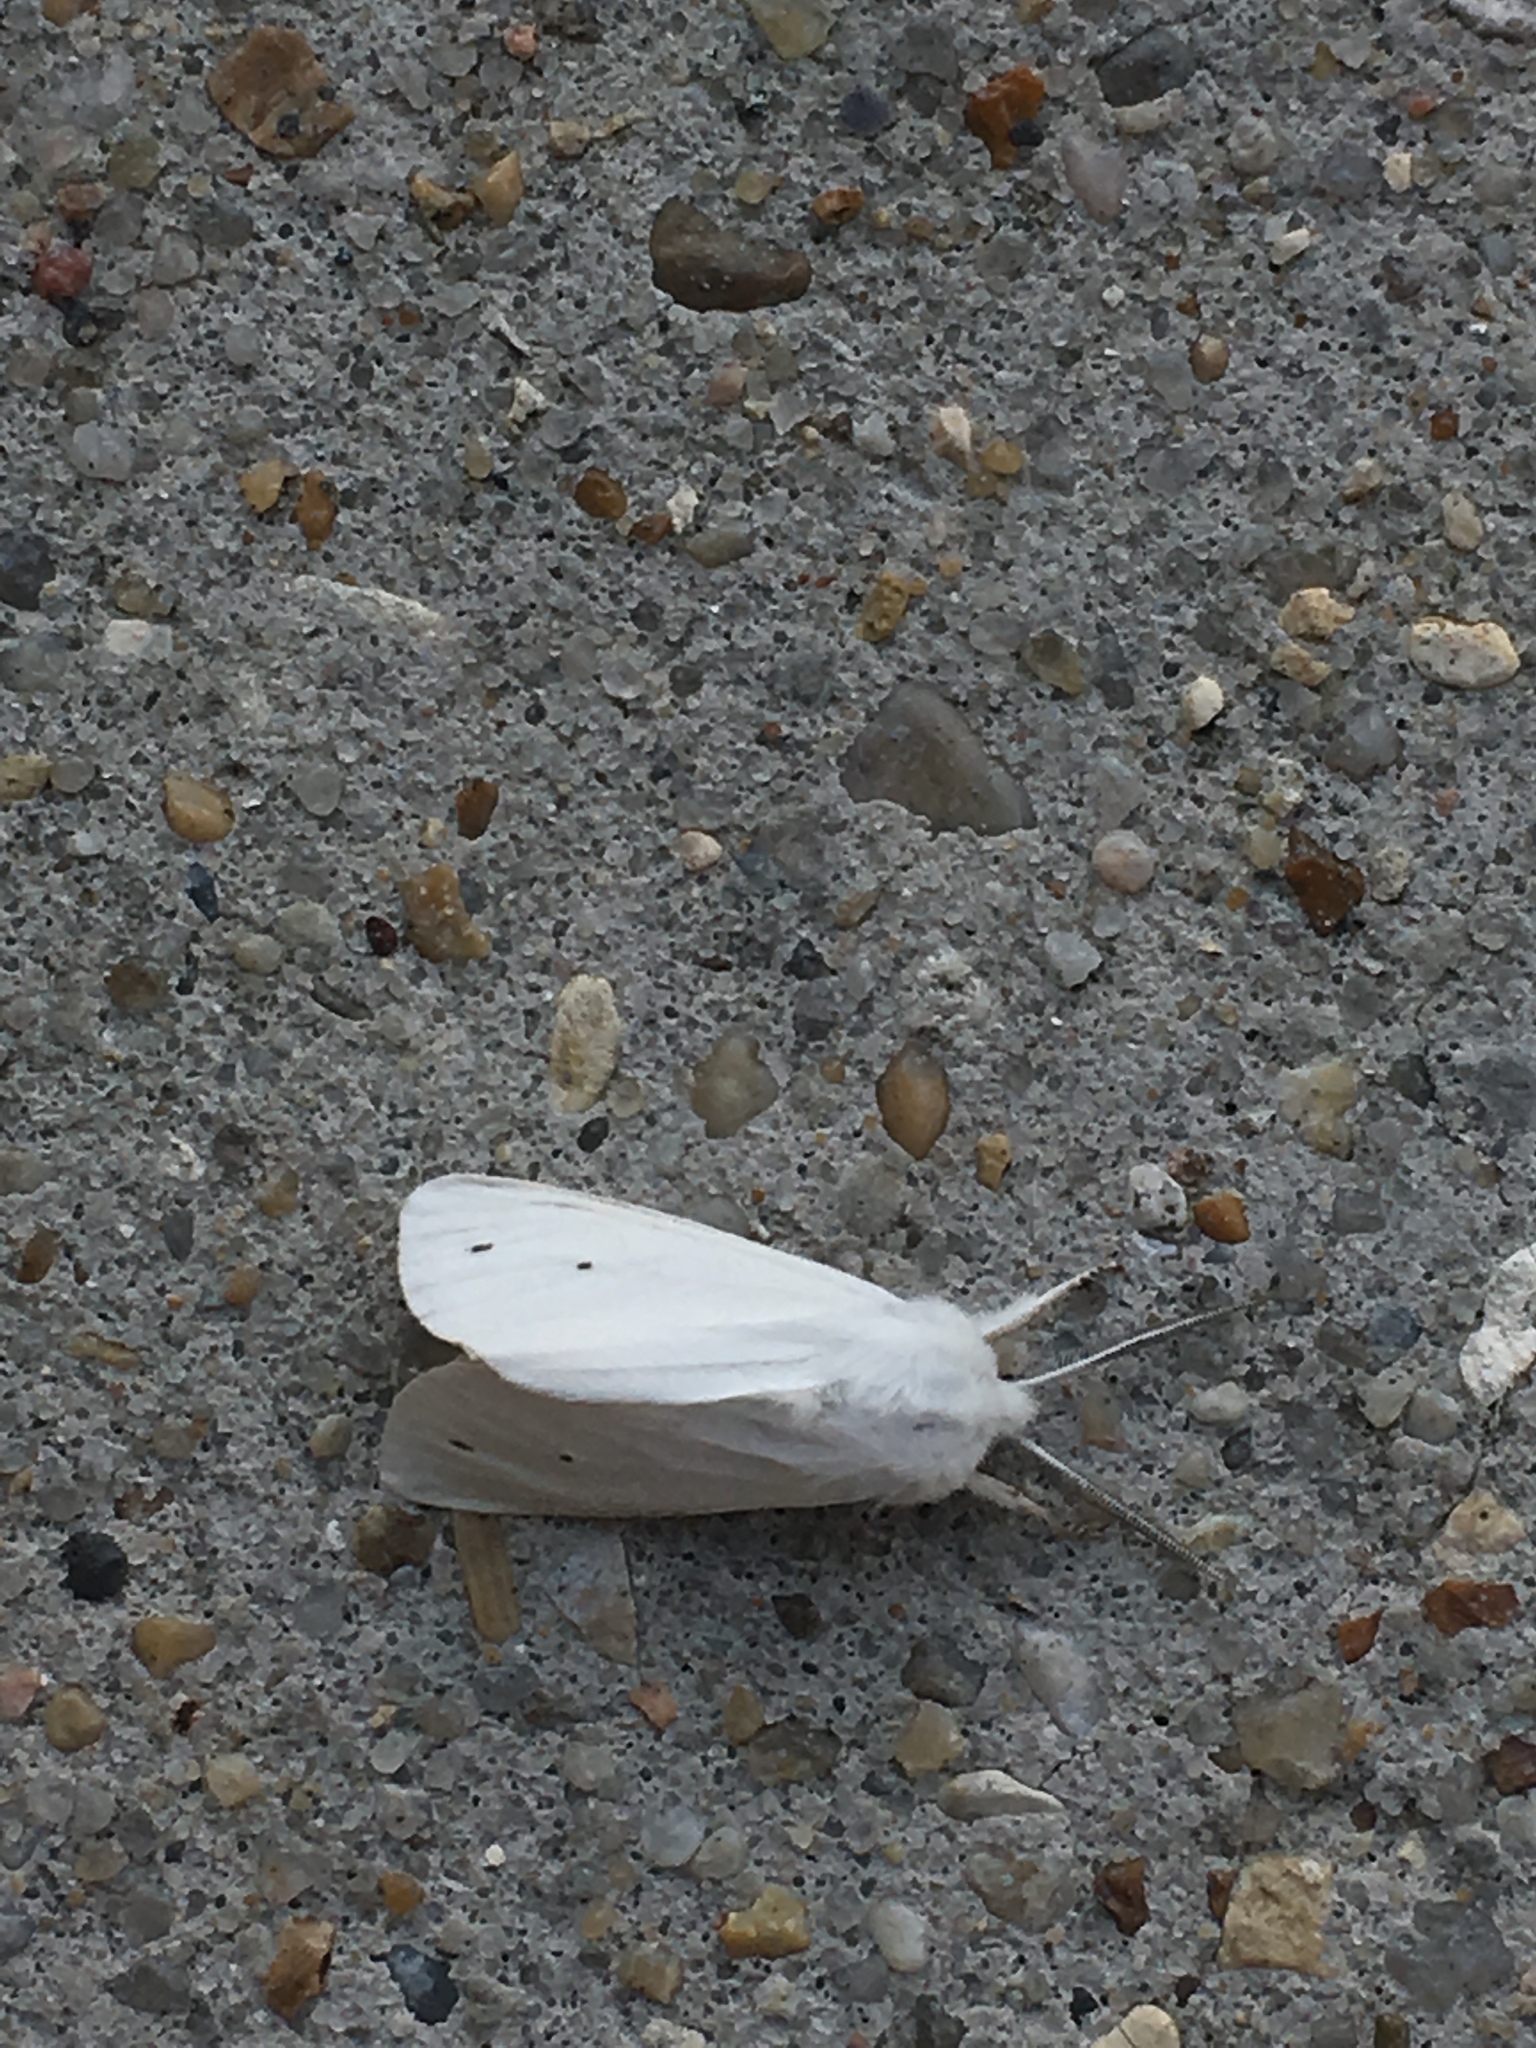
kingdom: Animalia
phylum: Arthropoda
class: Insecta
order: Lepidoptera
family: Erebidae
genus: Spilosoma
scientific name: Spilosoma virginica
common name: Virginia tiger moth
